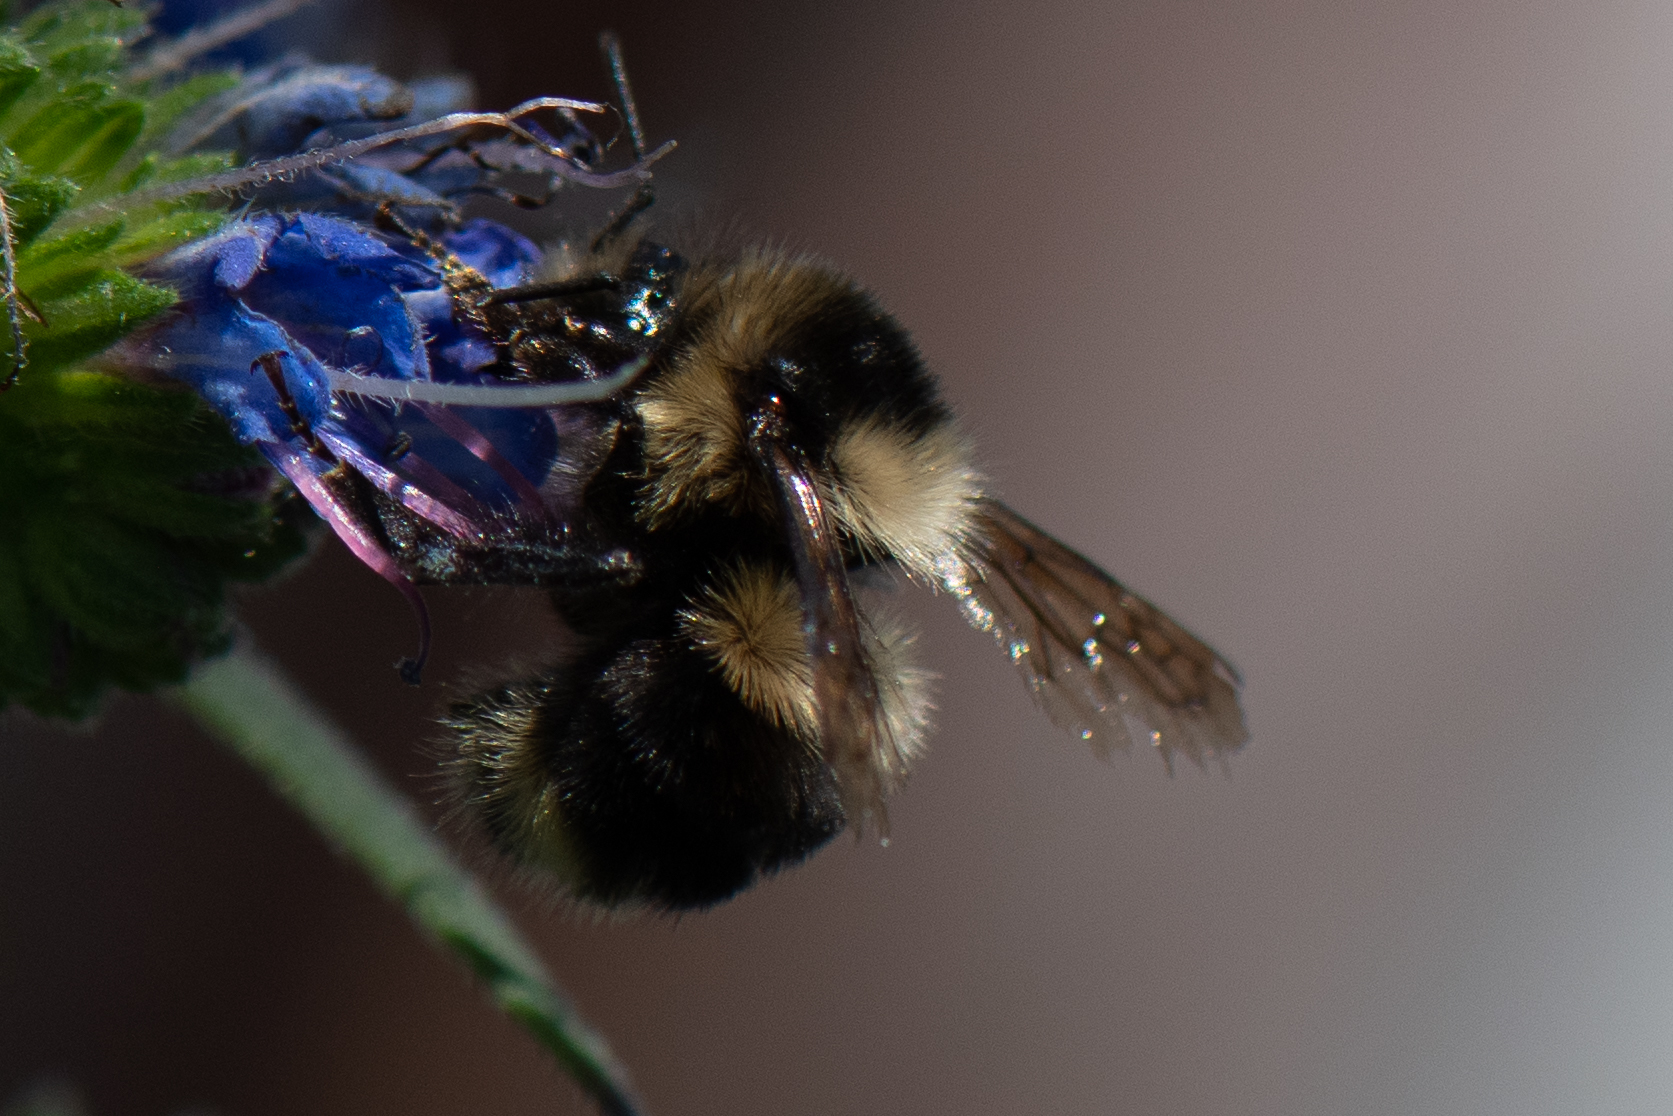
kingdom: Animalia
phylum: Arthropoda
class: Insecta
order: Hymenoptera
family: Apidae
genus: Bombus
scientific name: Bombus melanopygus
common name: Black tail bumble bee
